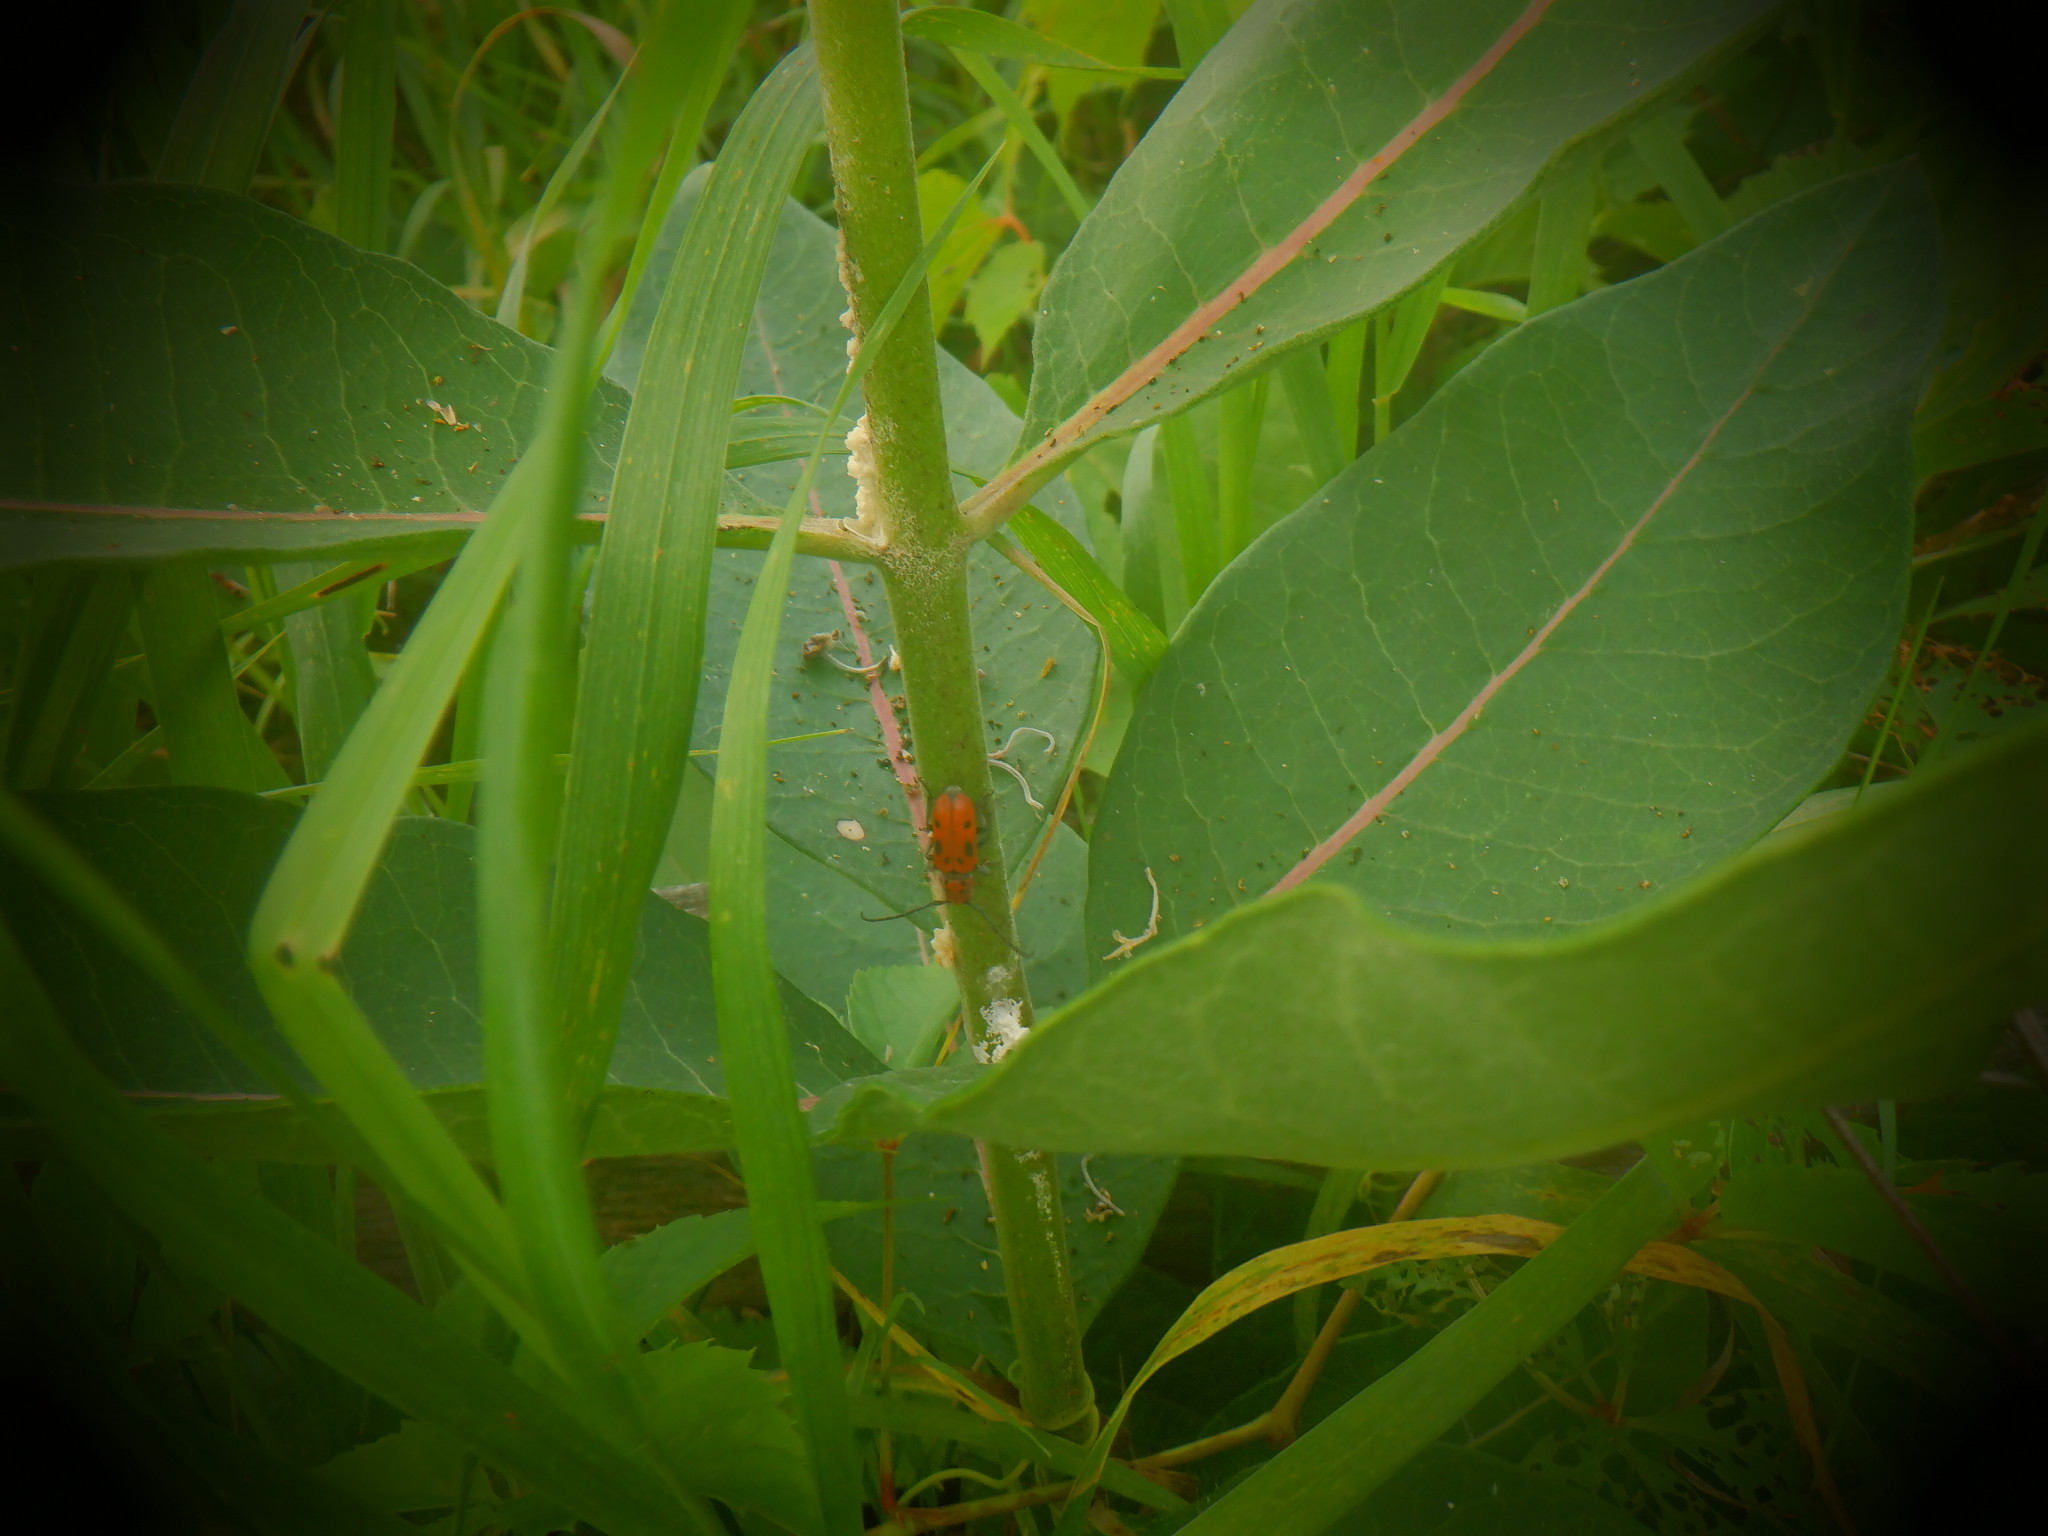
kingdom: Animalia
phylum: Arthropoda
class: Insecta
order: Coleoptera
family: Cerambycidae
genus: Tetraopes
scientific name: Tetraopes tetrophthalmus
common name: Red milkweed beetle
